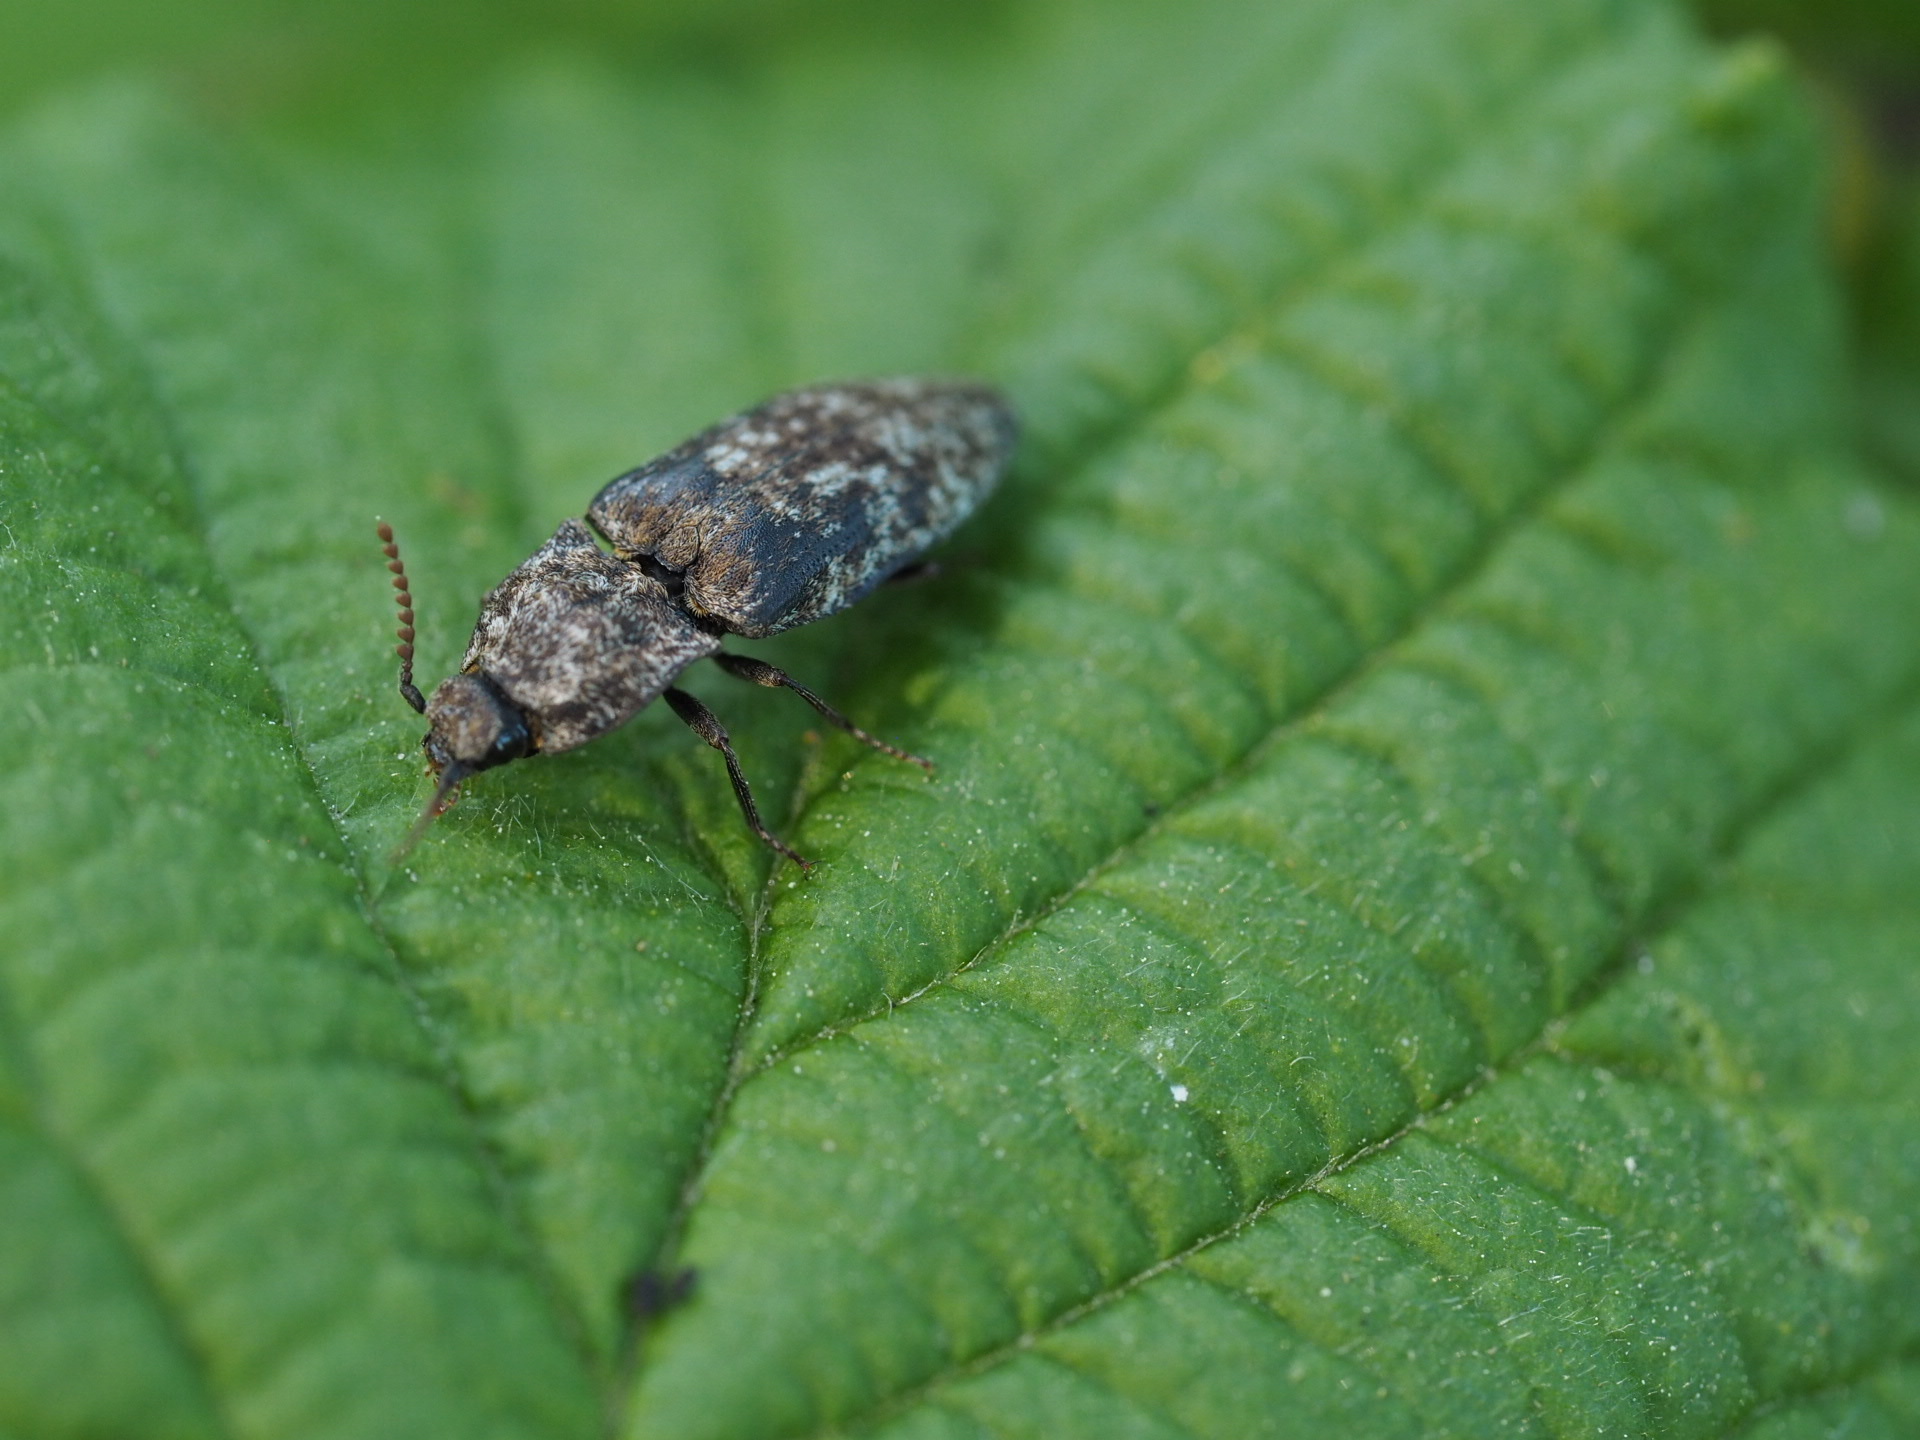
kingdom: Animalia
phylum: Arthropoda
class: Insecta
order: Coleoptera
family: Elateridae
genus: Agrypnus
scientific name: Agrypnus murinus
